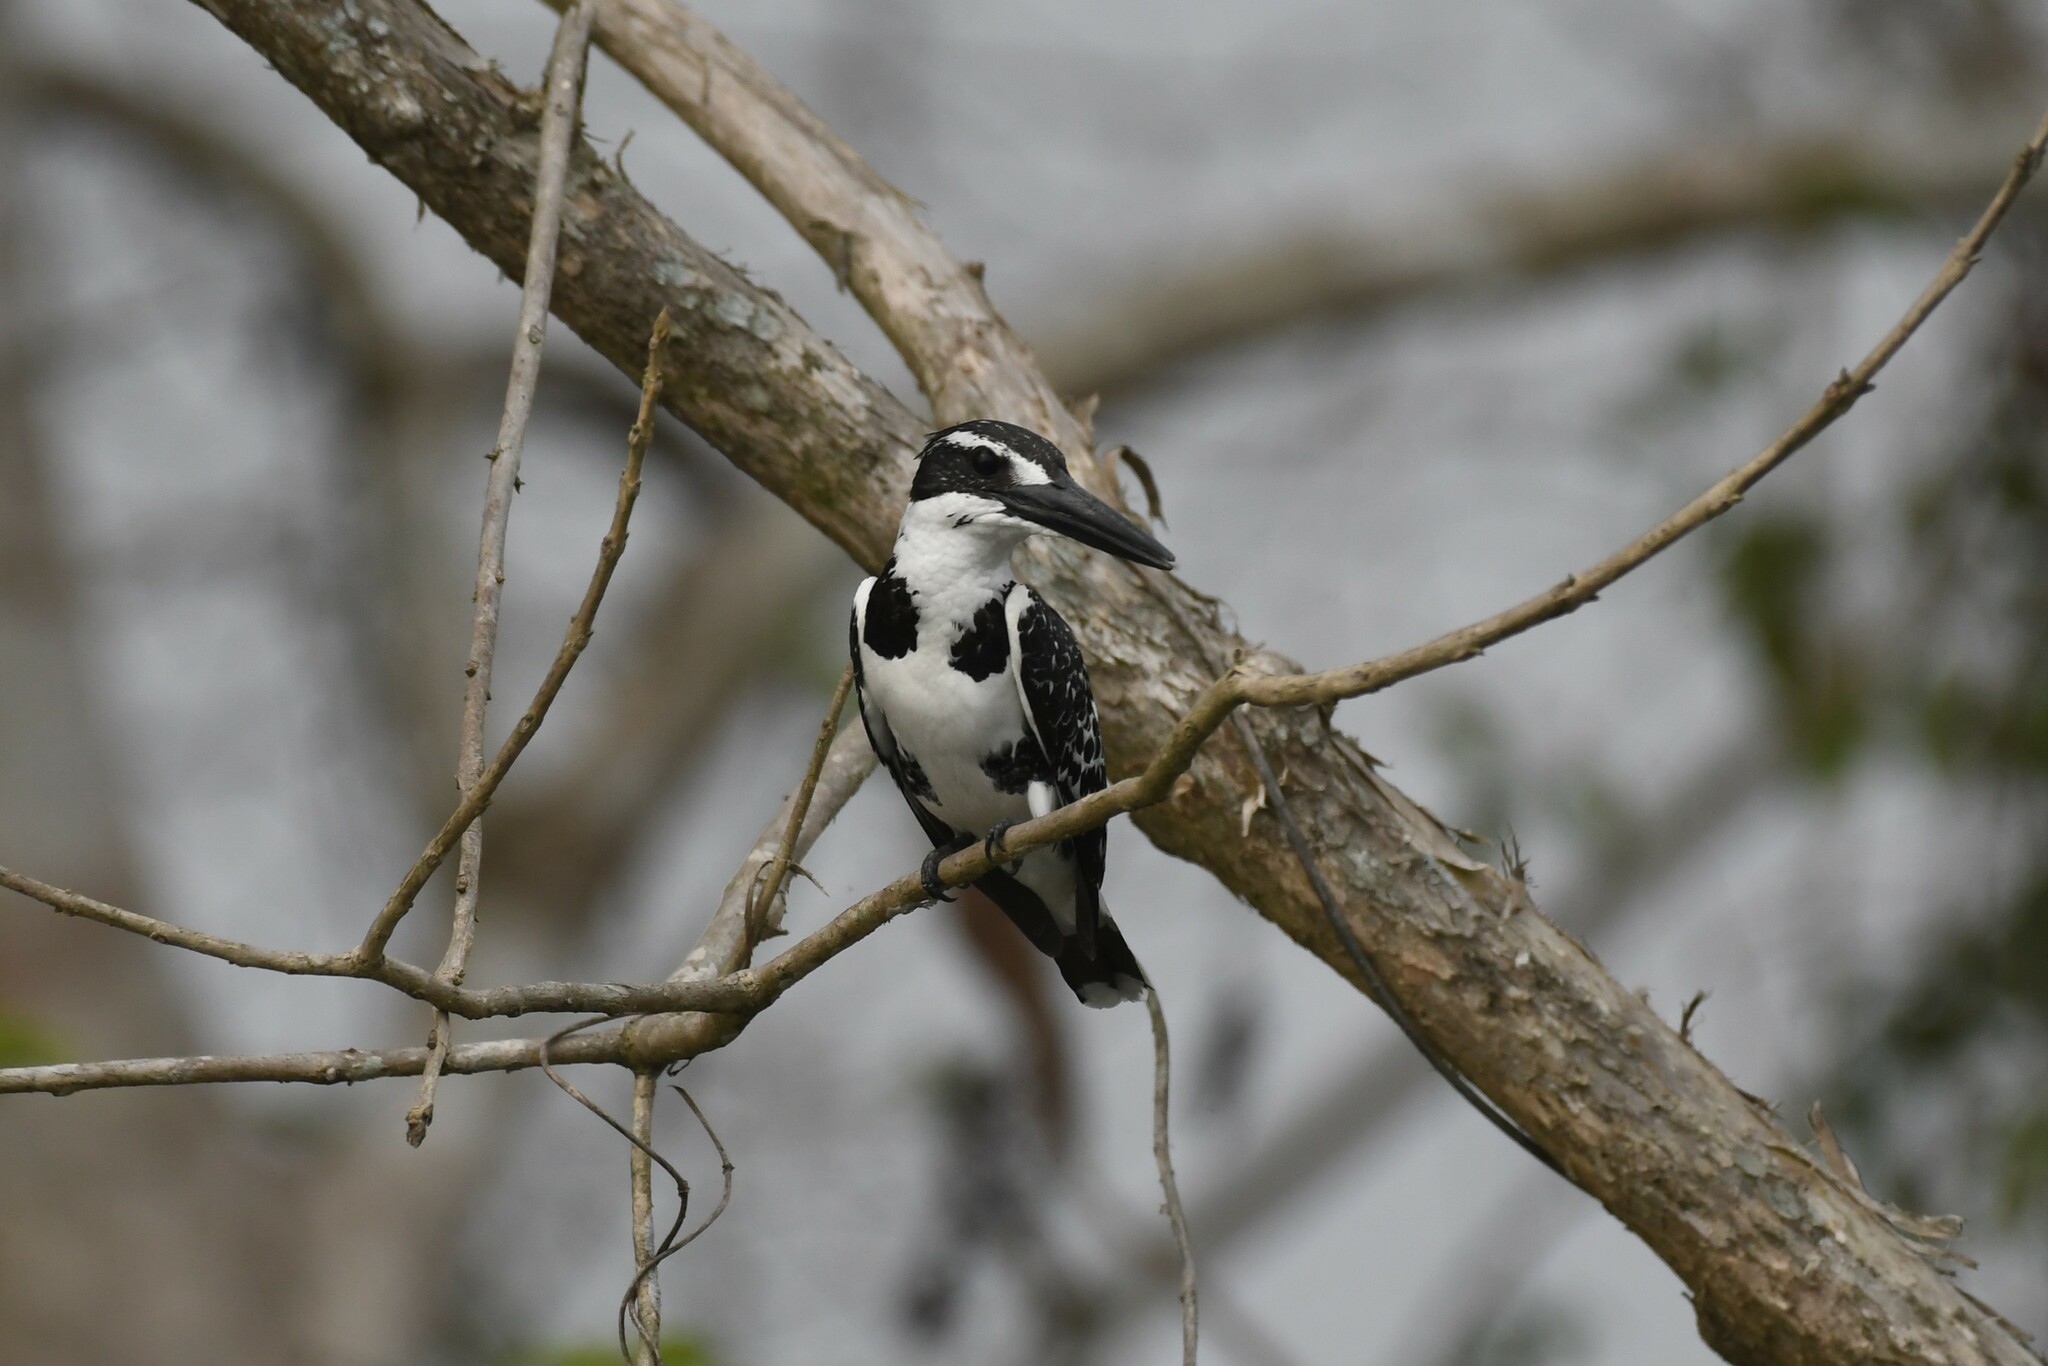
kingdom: Animalia
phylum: Chordata
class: Aves
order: Coraciiformes
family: Alcedinidae
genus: Ceryle
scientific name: Ceryle rudis
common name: Pied kingfisher
